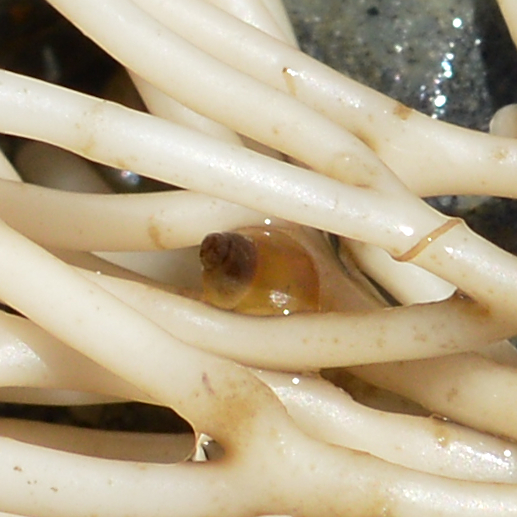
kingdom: Animalia
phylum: Mollusca
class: Gastropoda
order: Littorinimorpha
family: Littorinidae
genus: Lacuna
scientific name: Lacuna vincta
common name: Banded chink shell
